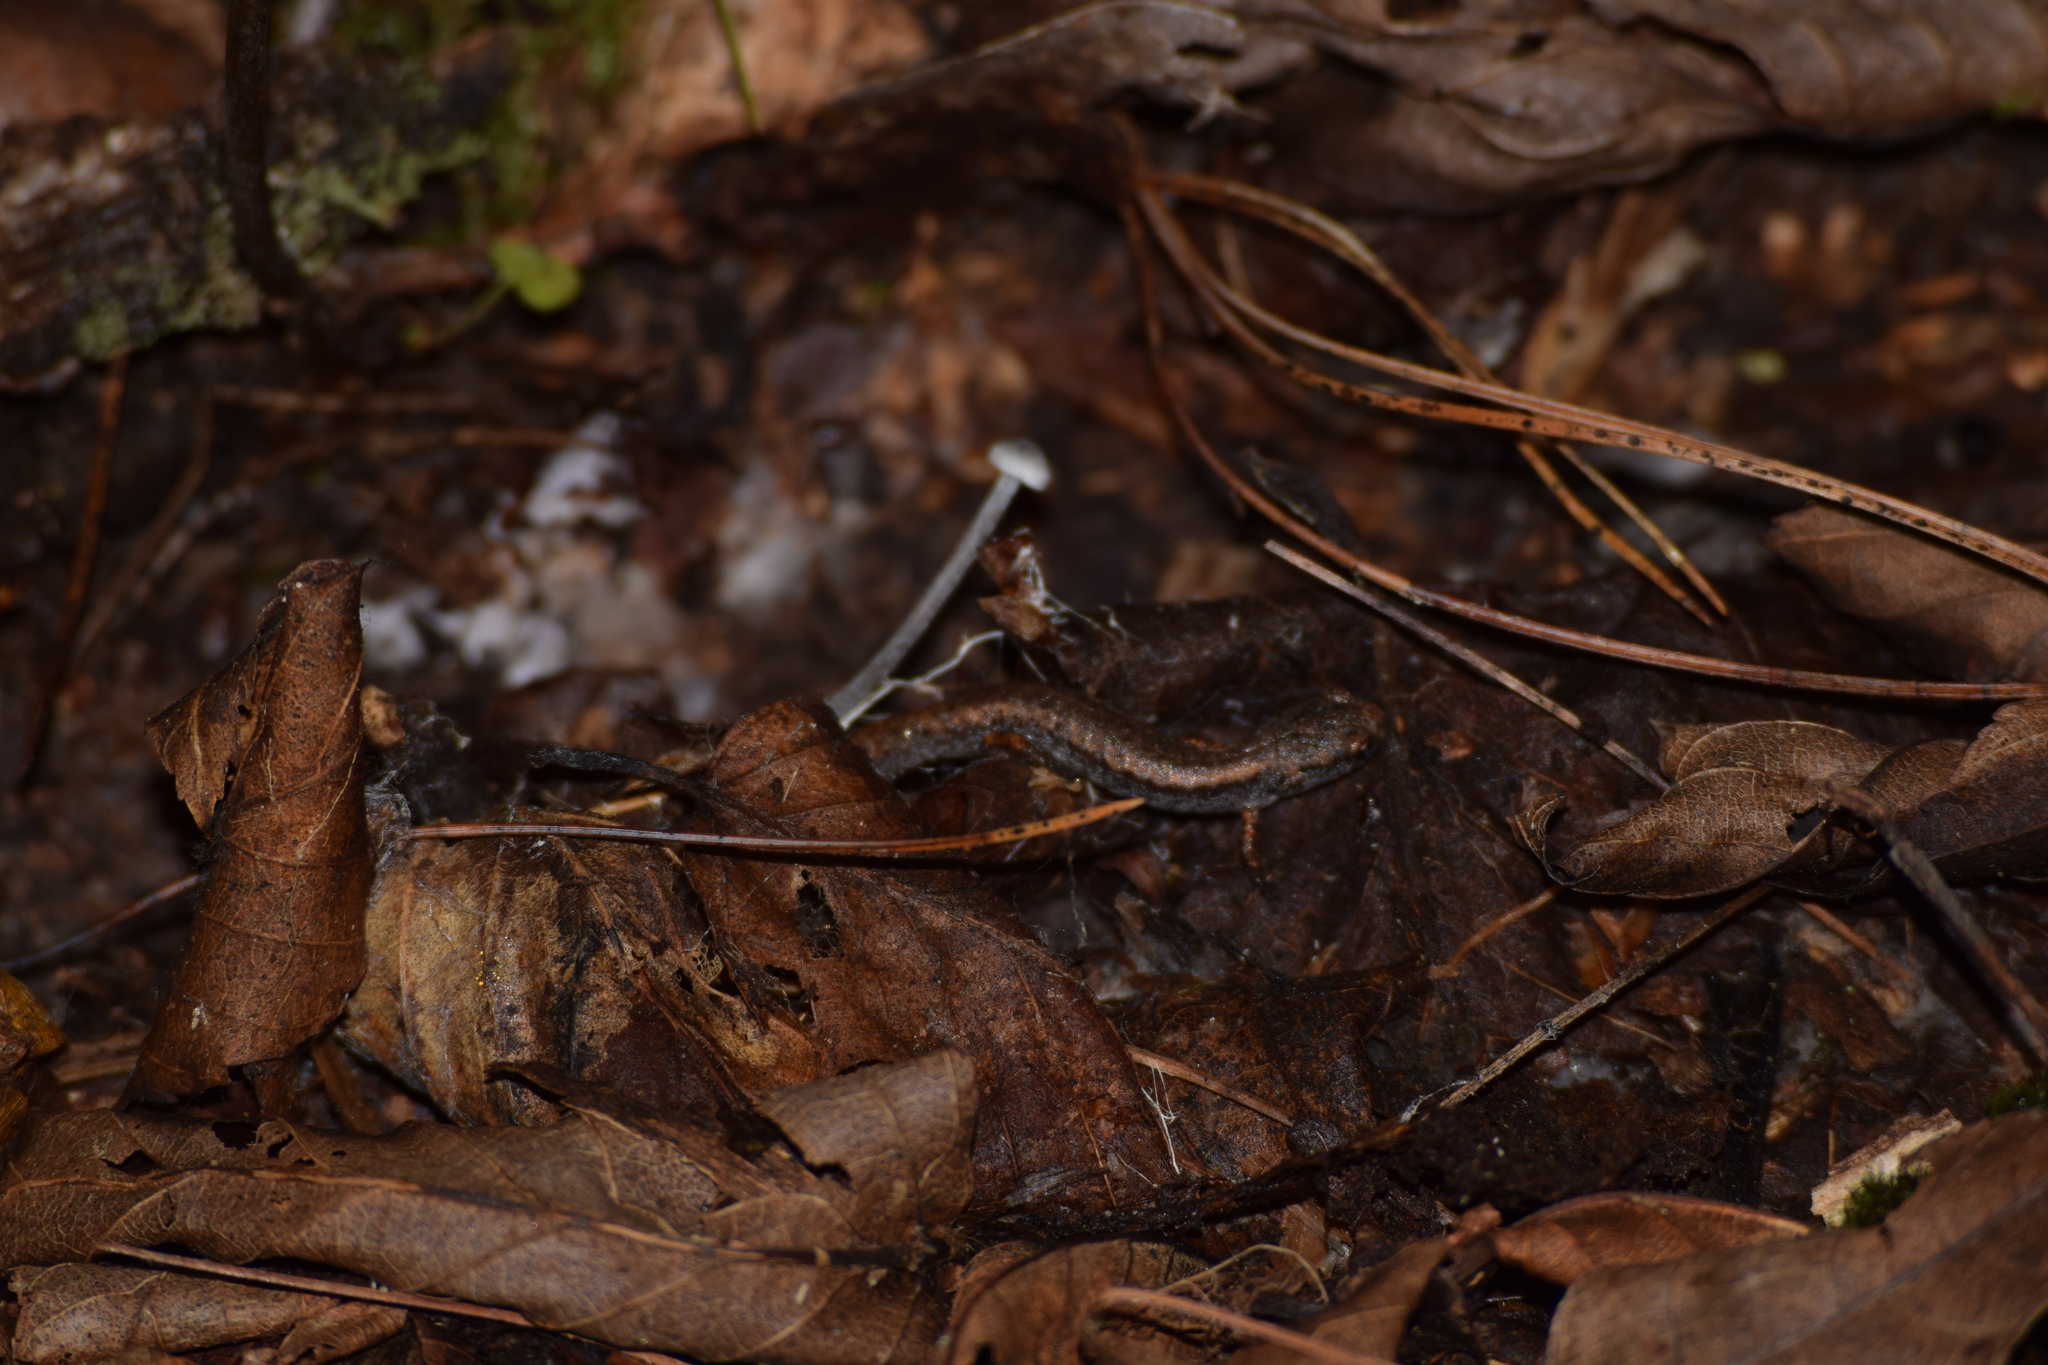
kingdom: Animalia
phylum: Chordata
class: Amphibia
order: Caudata
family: Plethodontidae
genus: Hemidactylium
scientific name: Hemidactylium scutatum
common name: Four-toed salamander
